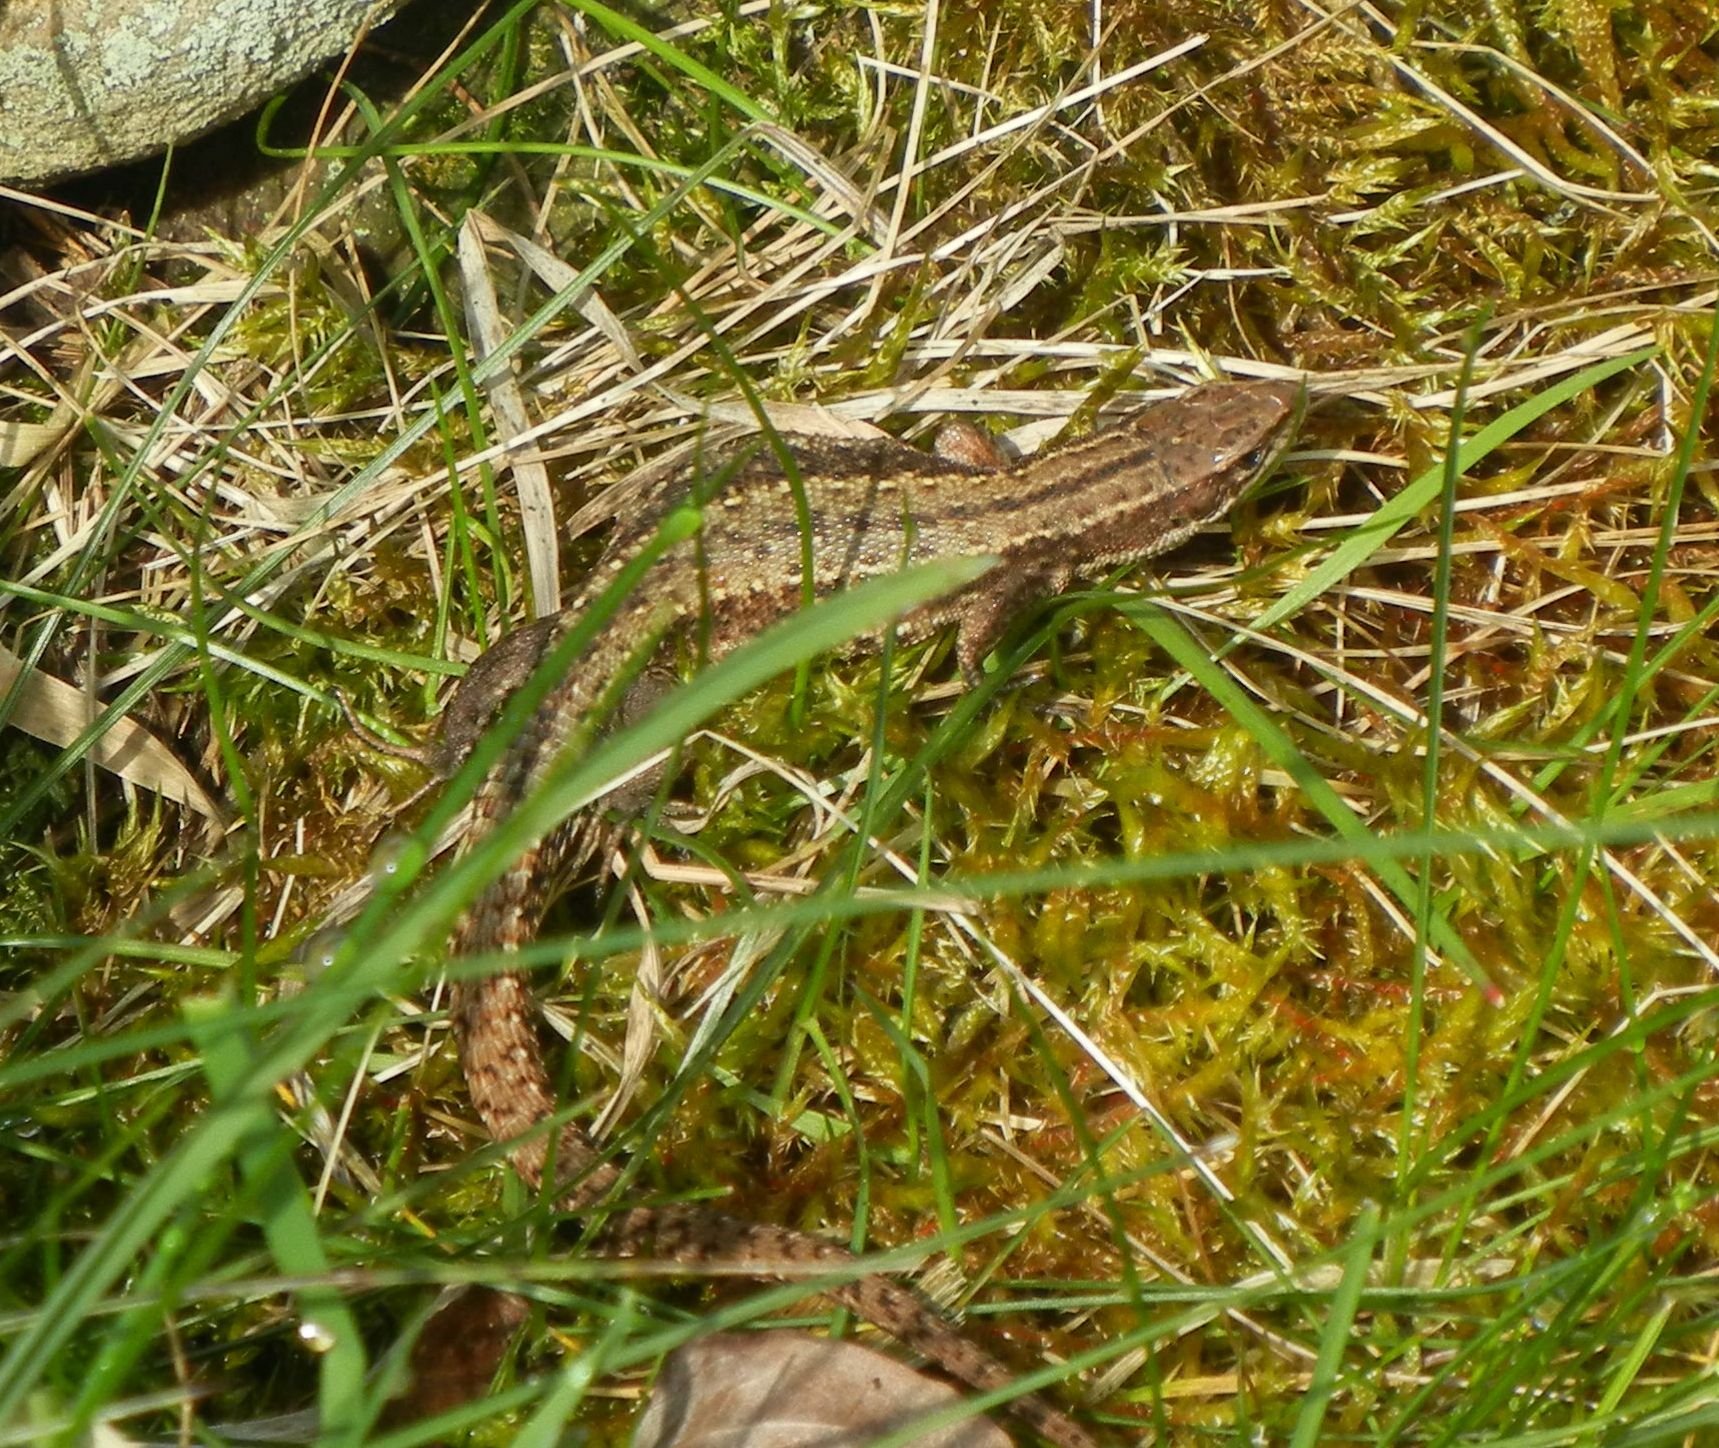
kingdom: Animalia
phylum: Chordata
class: Squamata
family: Lacertidae
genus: Zootoca
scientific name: Zootoca vivipara
